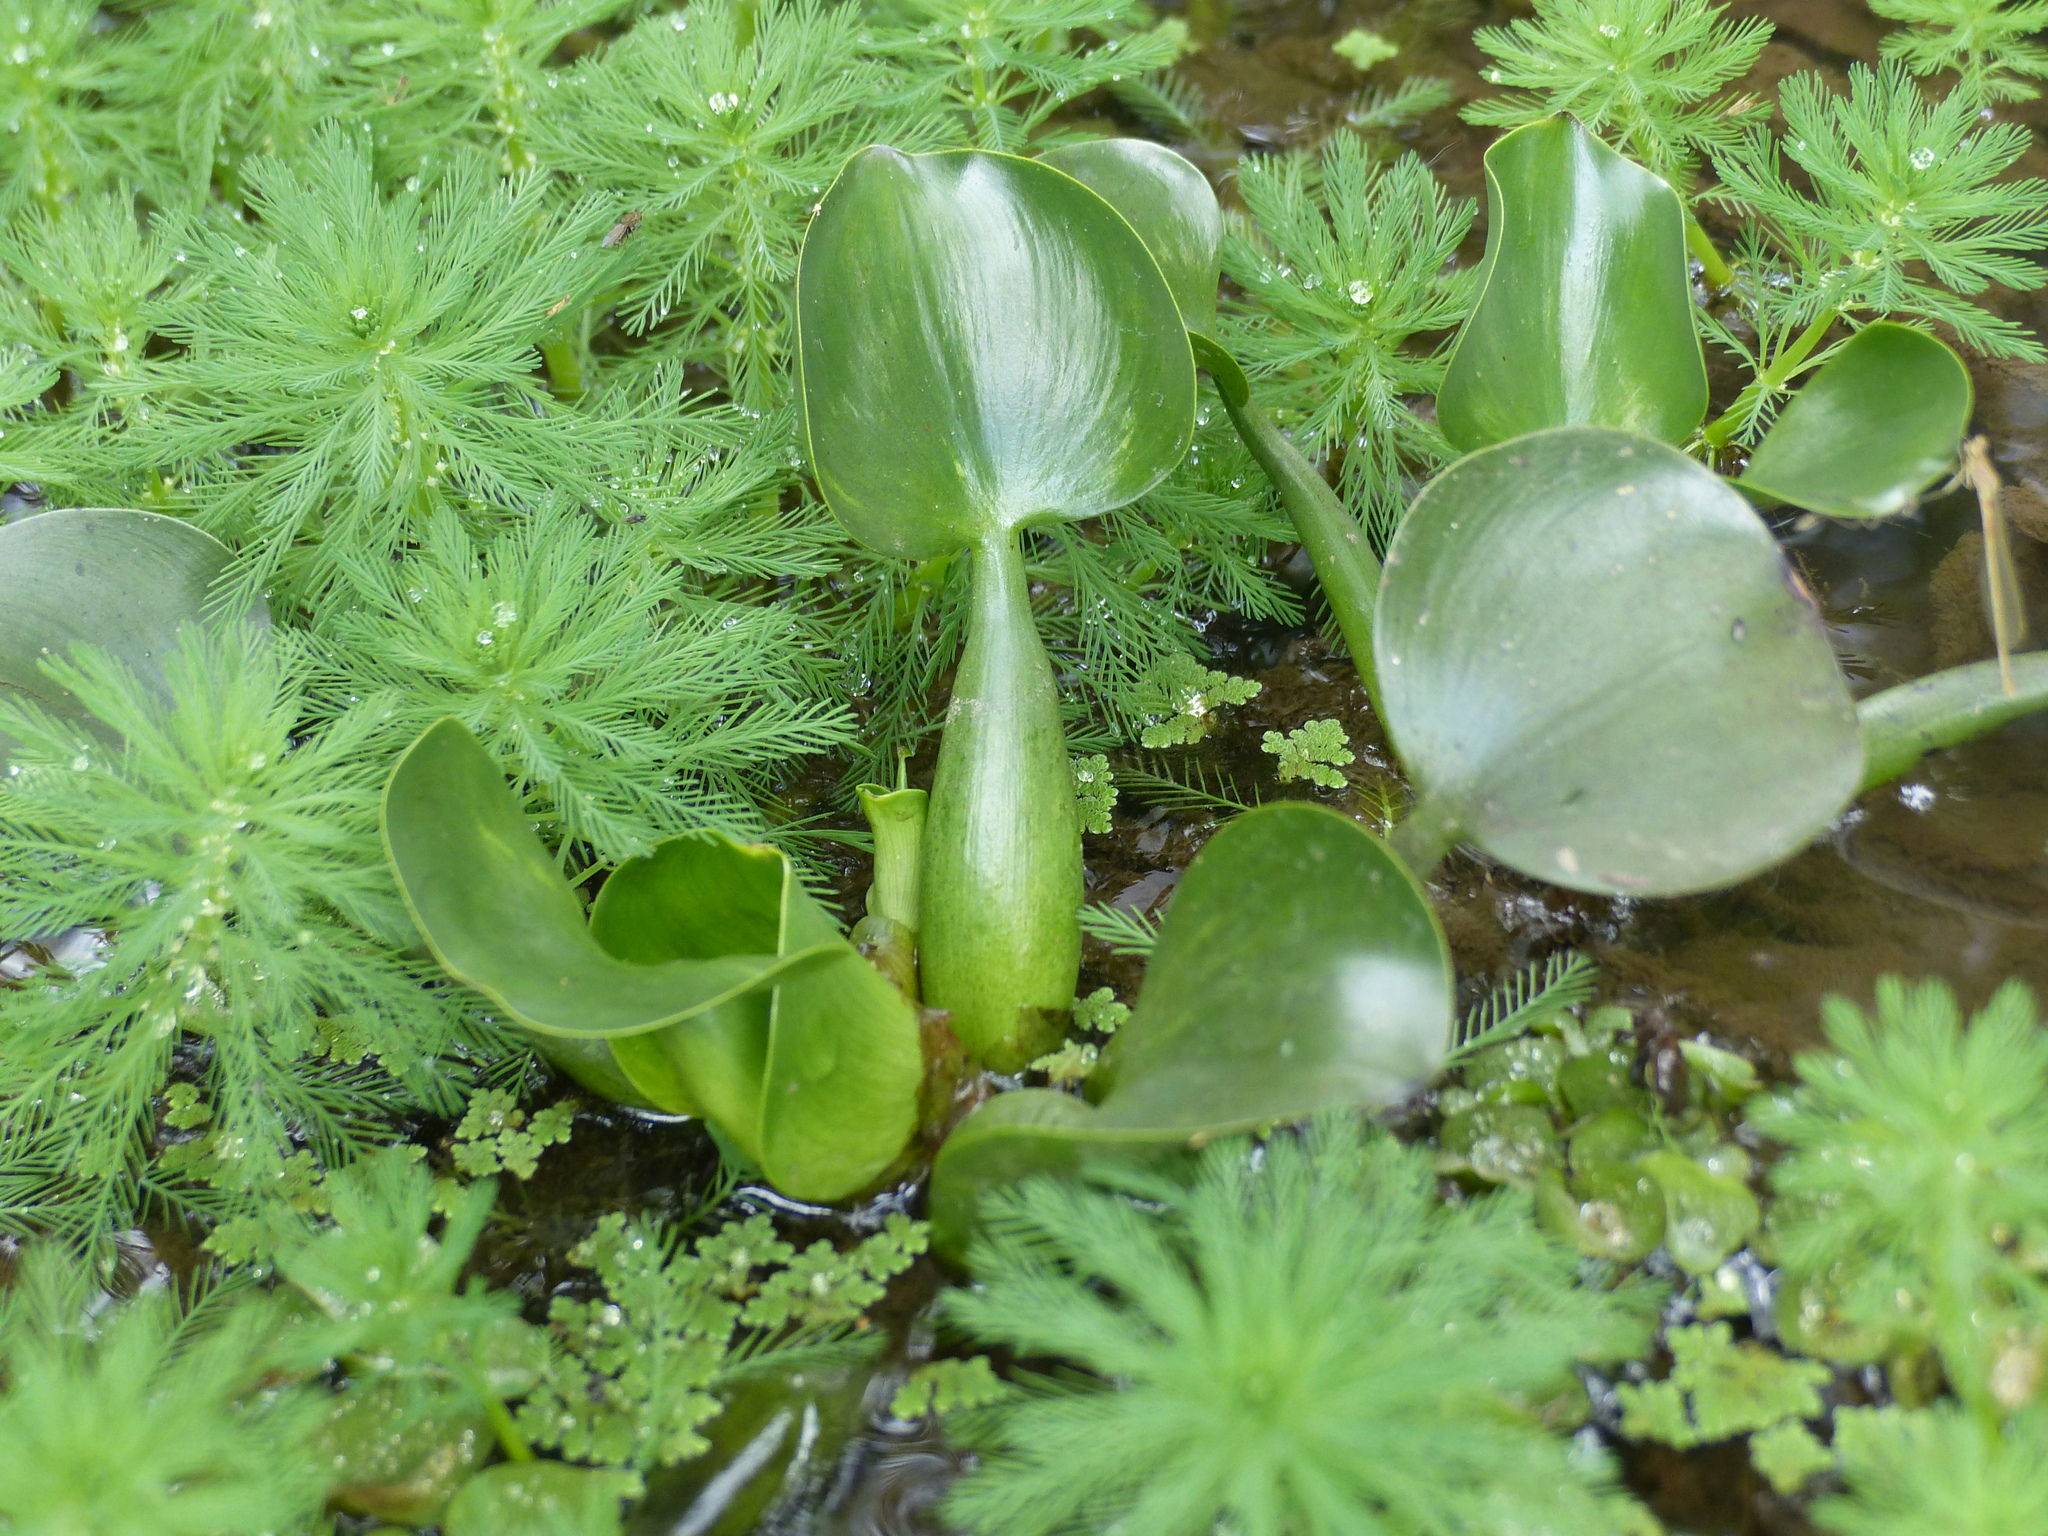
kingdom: Plantae
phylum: Tracheophyta
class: Liliopsida
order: Commelinales
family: Pontederiaceae
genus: Pontederia
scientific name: Pontederia crassipes
